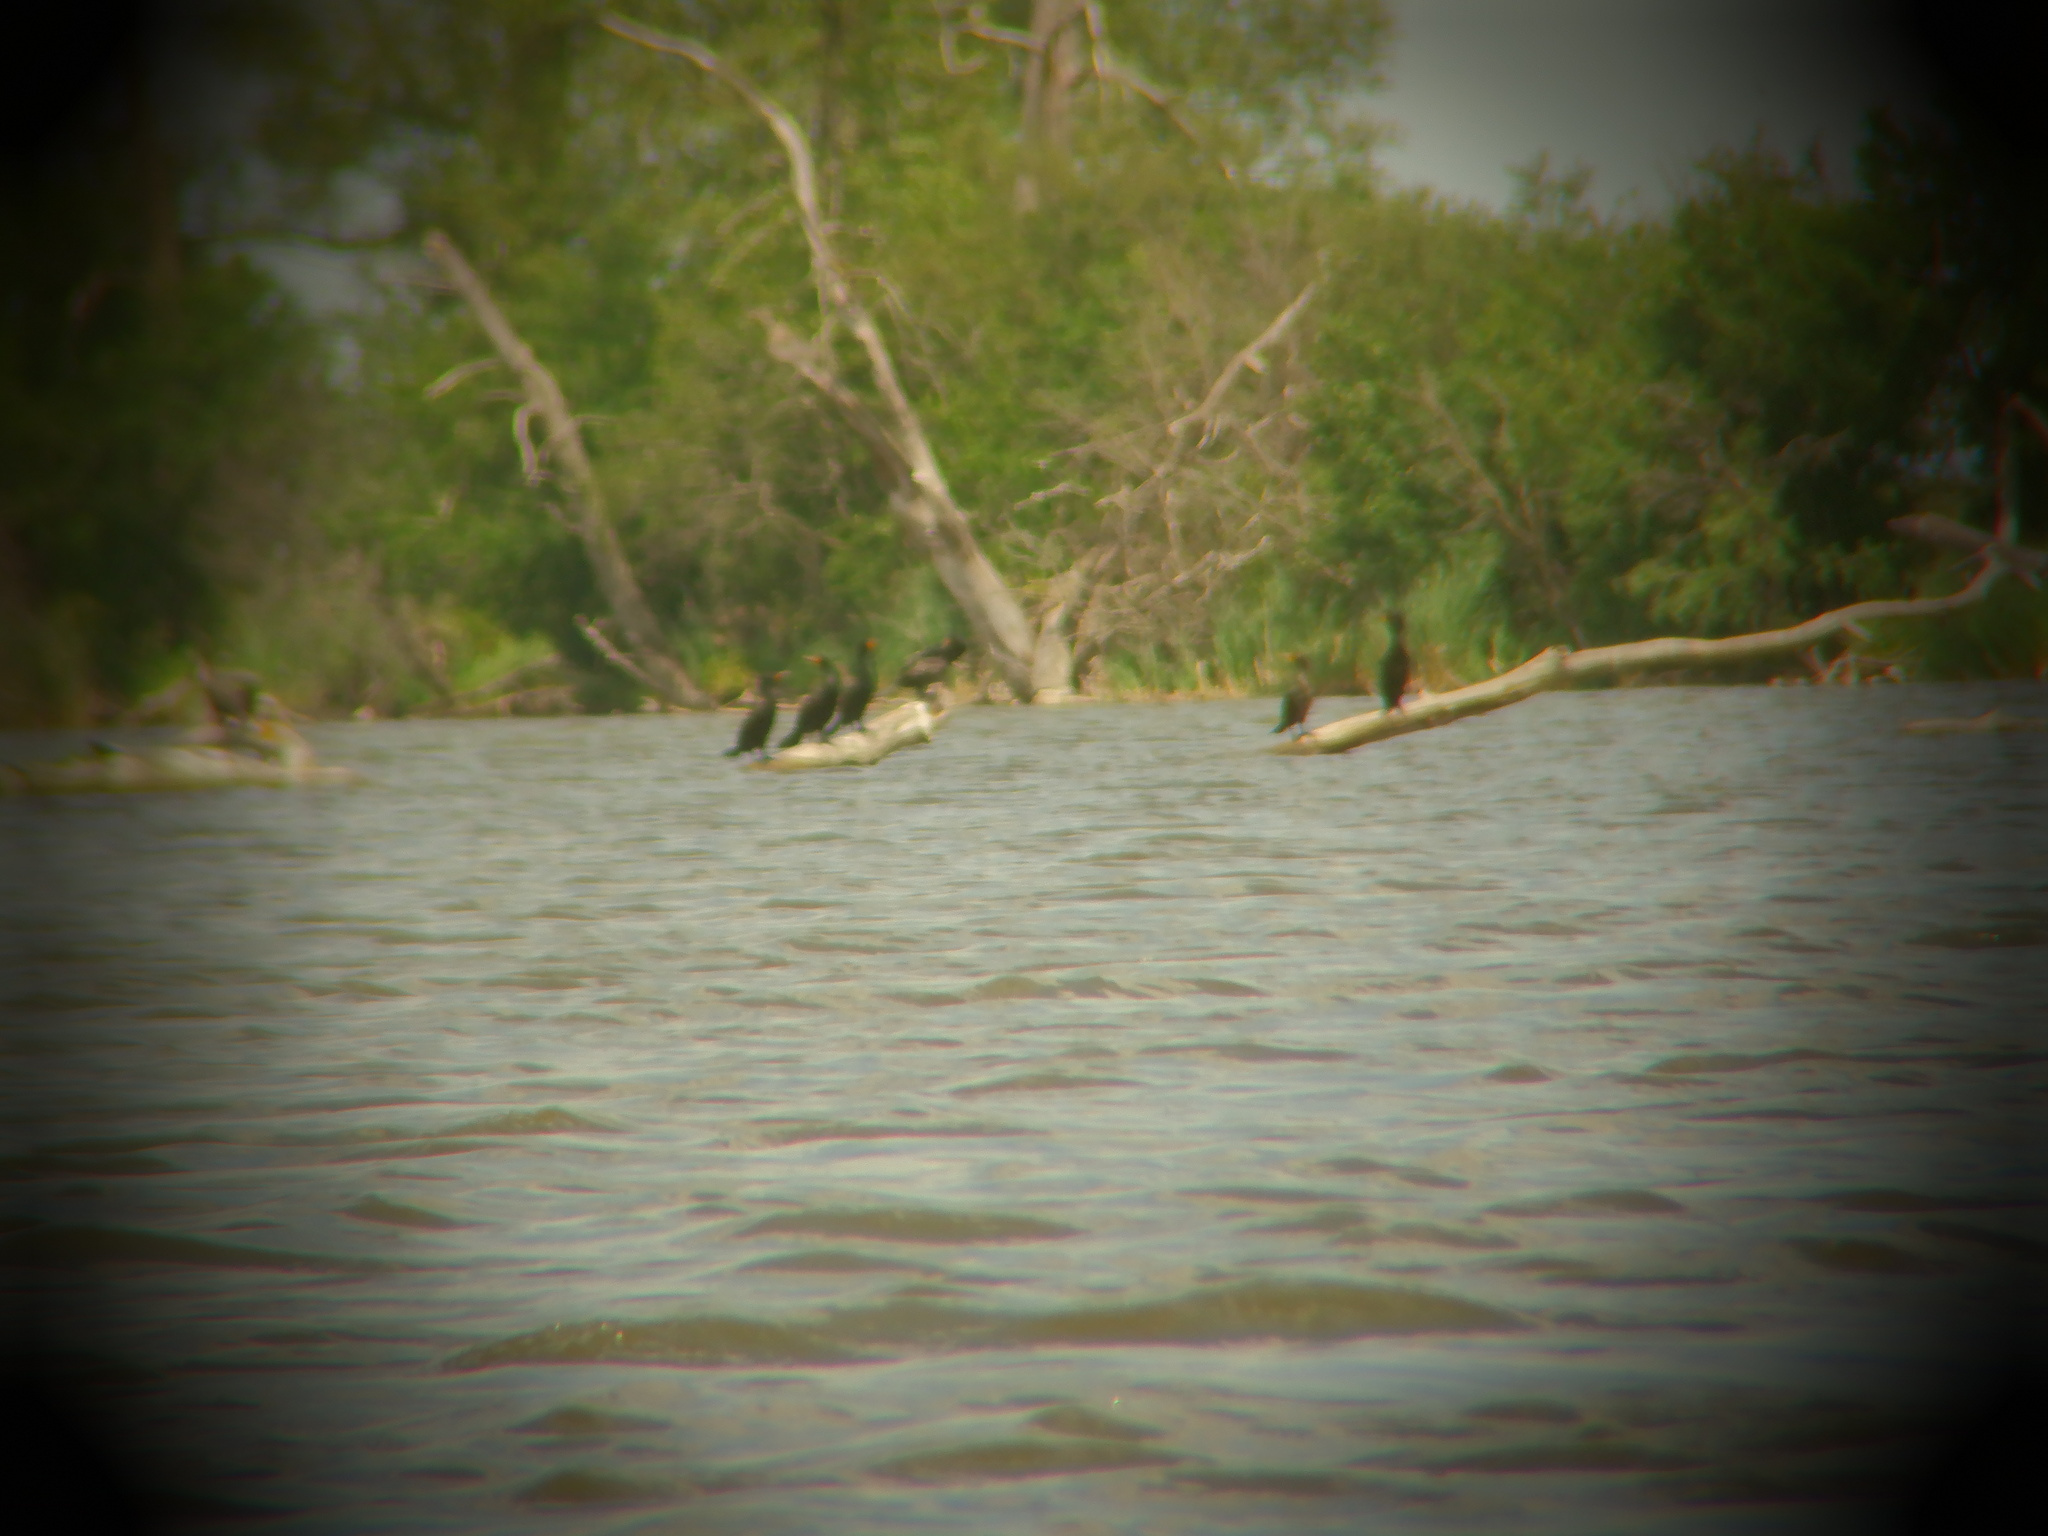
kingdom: Animalia
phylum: Chordata
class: Aves
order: Suliformes
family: Phalacrocoracidae
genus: Phalacrocorax
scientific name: Phalacrocorax auritus
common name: Double-crested cormorant
